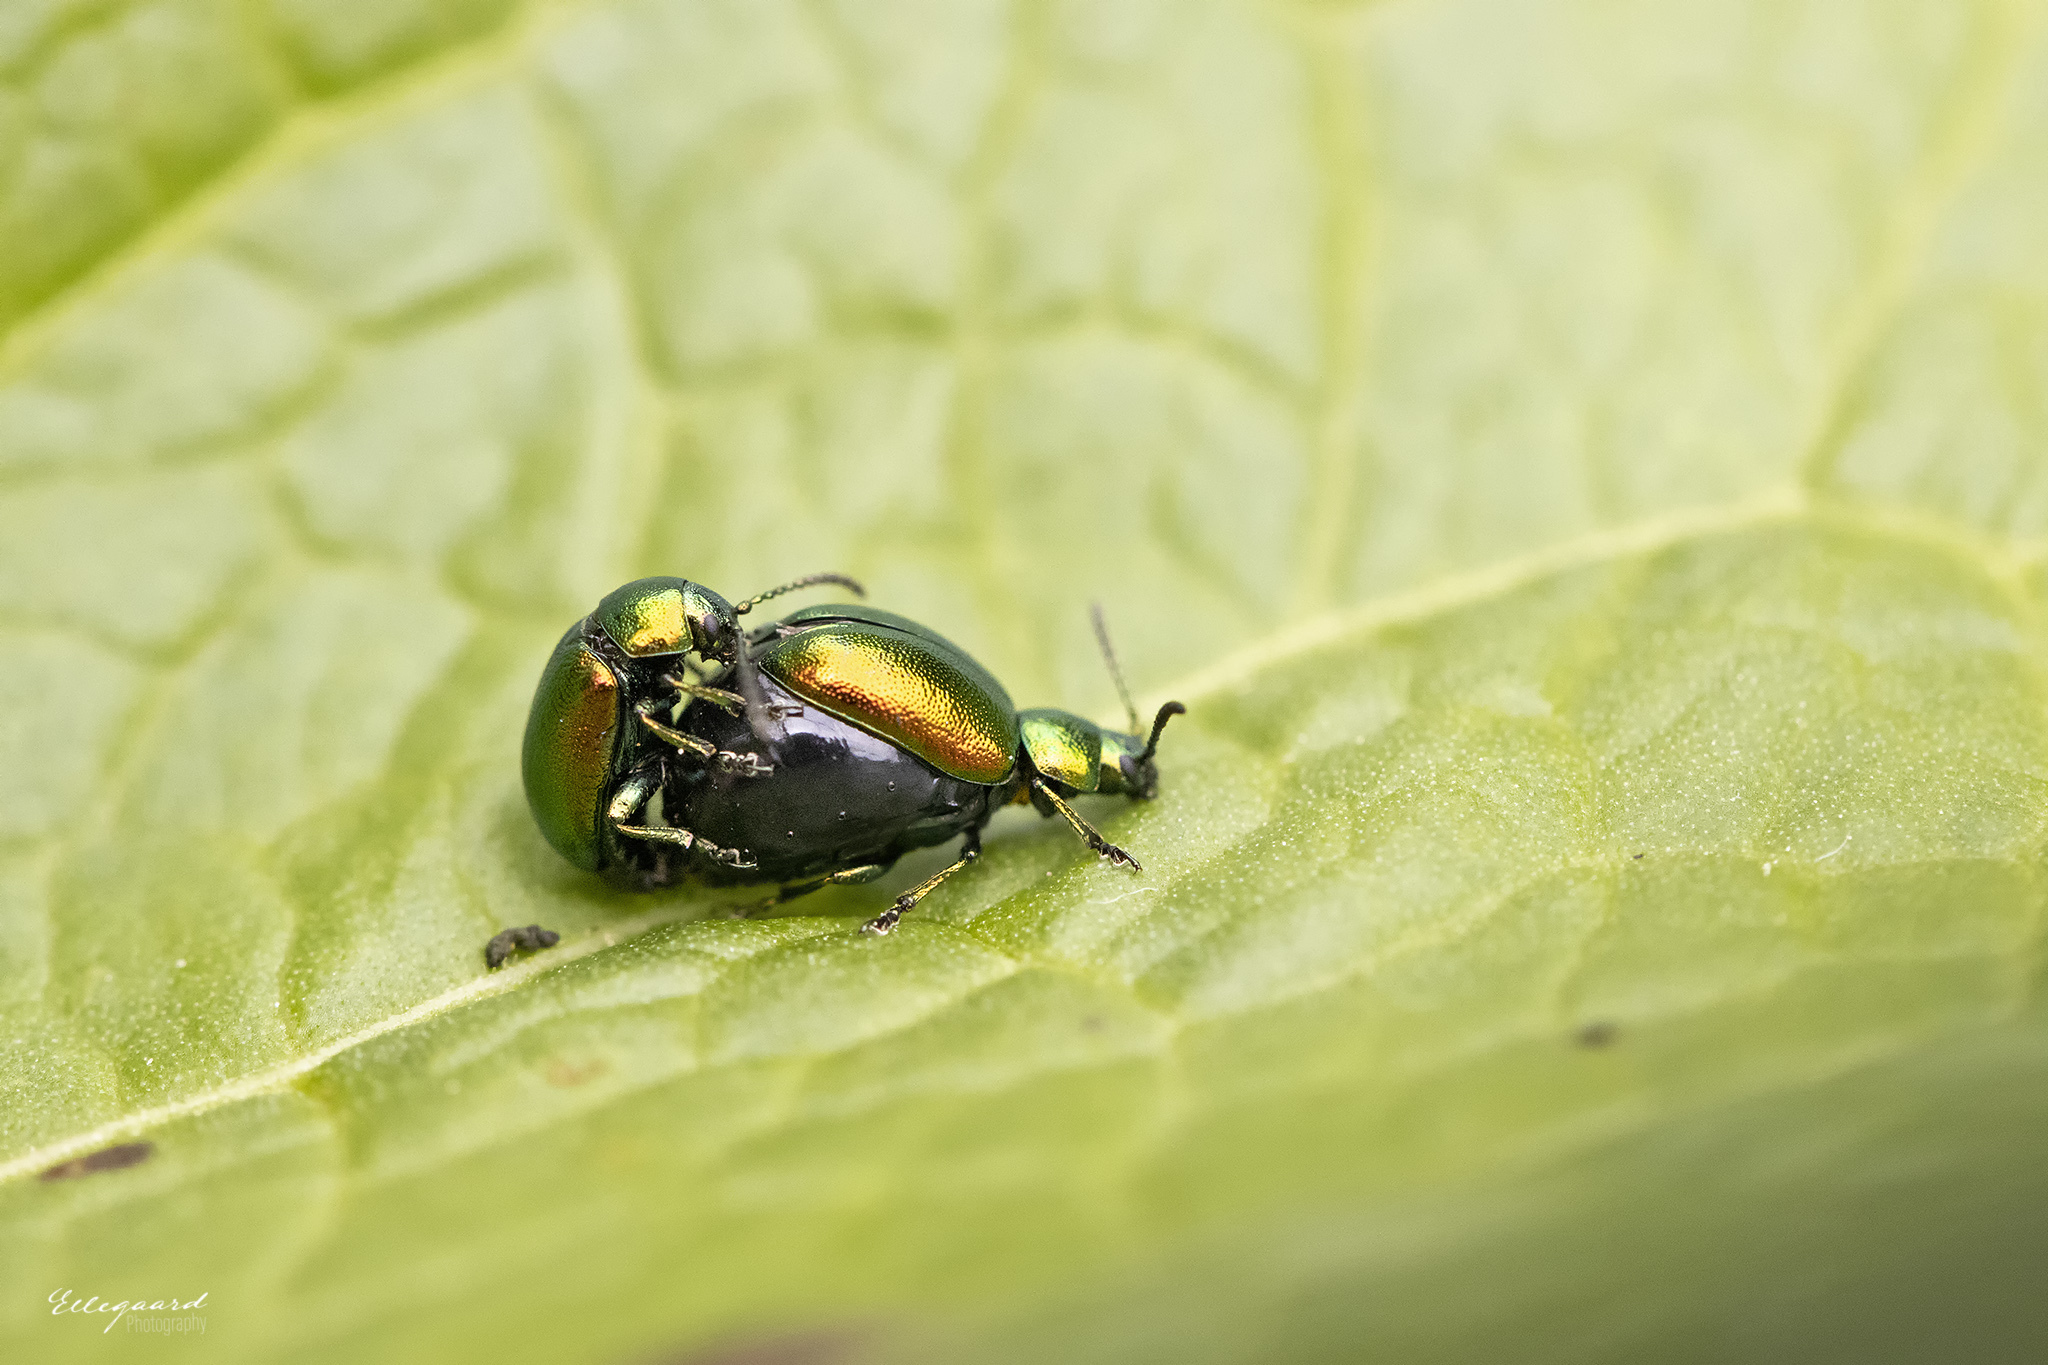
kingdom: Animalia
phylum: Arthropoda
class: Insecta
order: Coleoptera
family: Chrysomelidae
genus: Gastrophysa
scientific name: Gastrophysa viridula
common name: Green dock beetle
